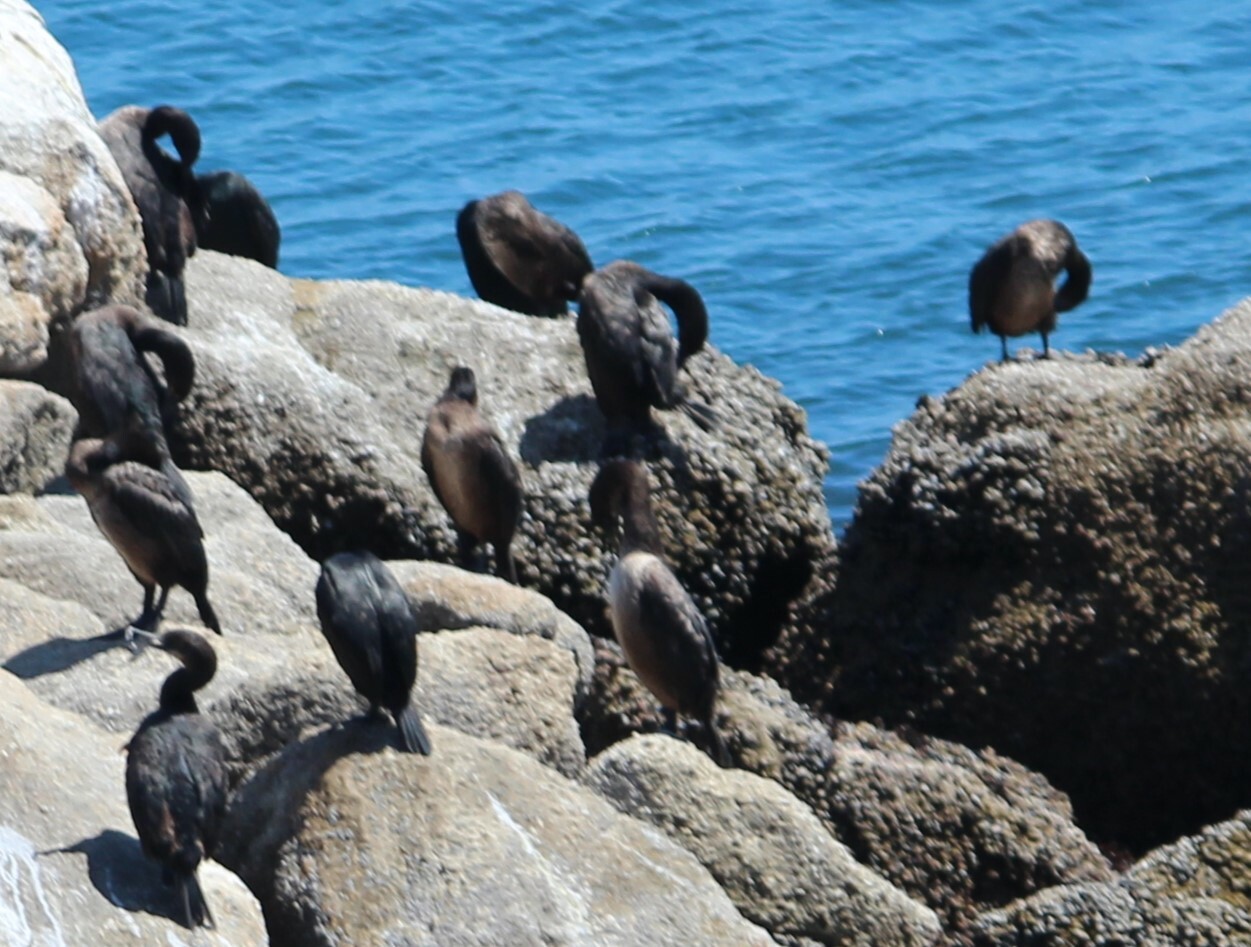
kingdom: Animalia
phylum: Chordata
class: Aves
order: Suliformes
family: Phalacrocoracidae
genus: Urile
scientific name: Urile penicillatus
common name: Brandt's cormorant
